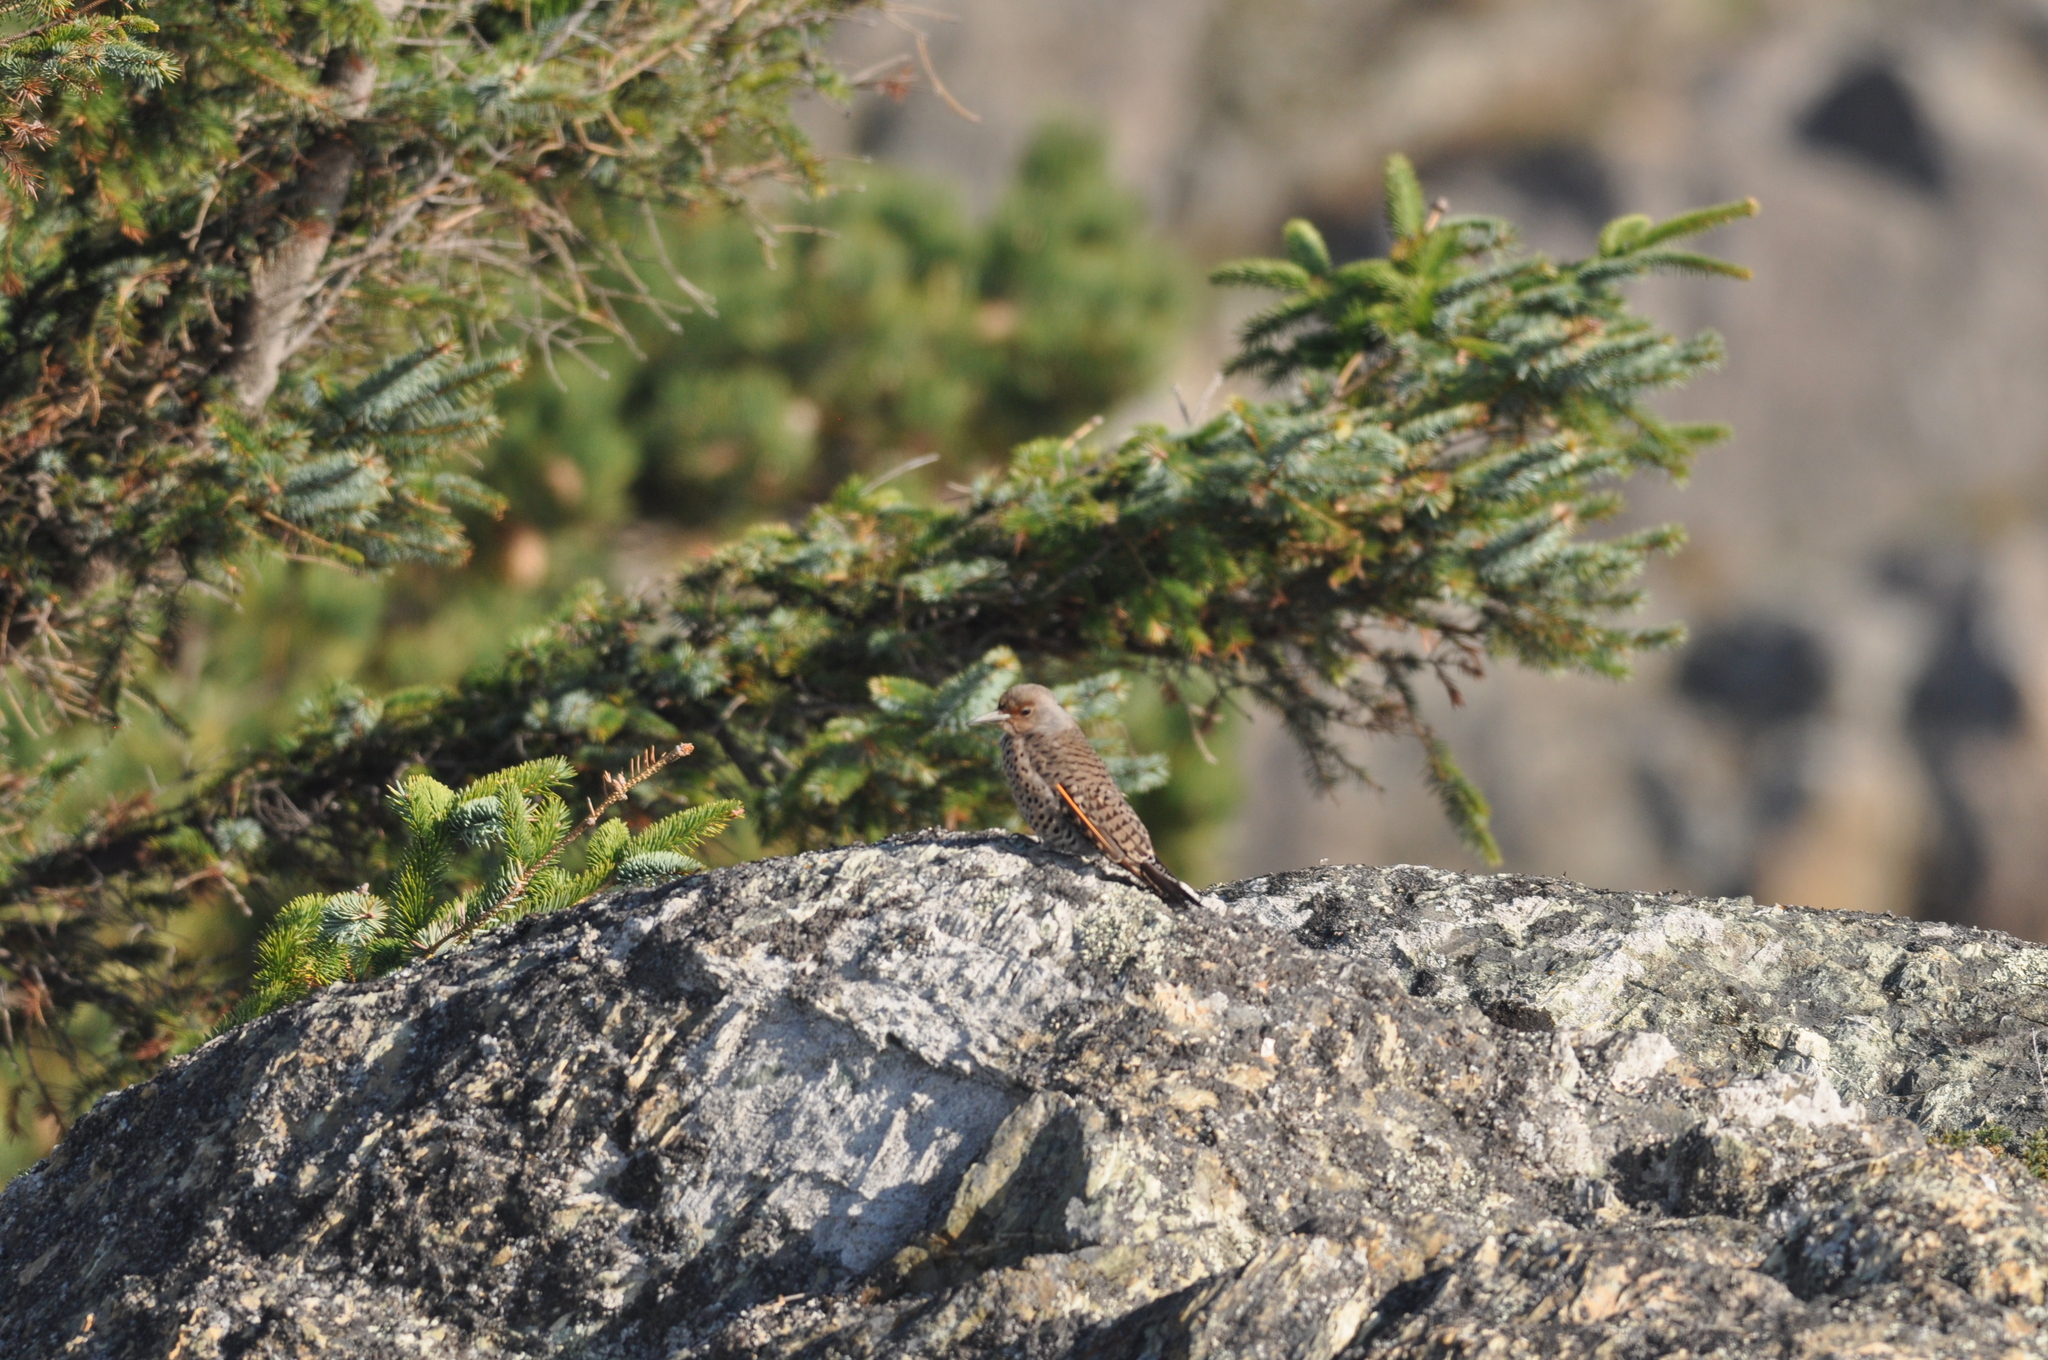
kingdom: Animalia
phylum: Chordata
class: Aves
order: Piciformes
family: Picidae
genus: Colaptes
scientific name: Colaptes auratus
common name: Northern flicker
